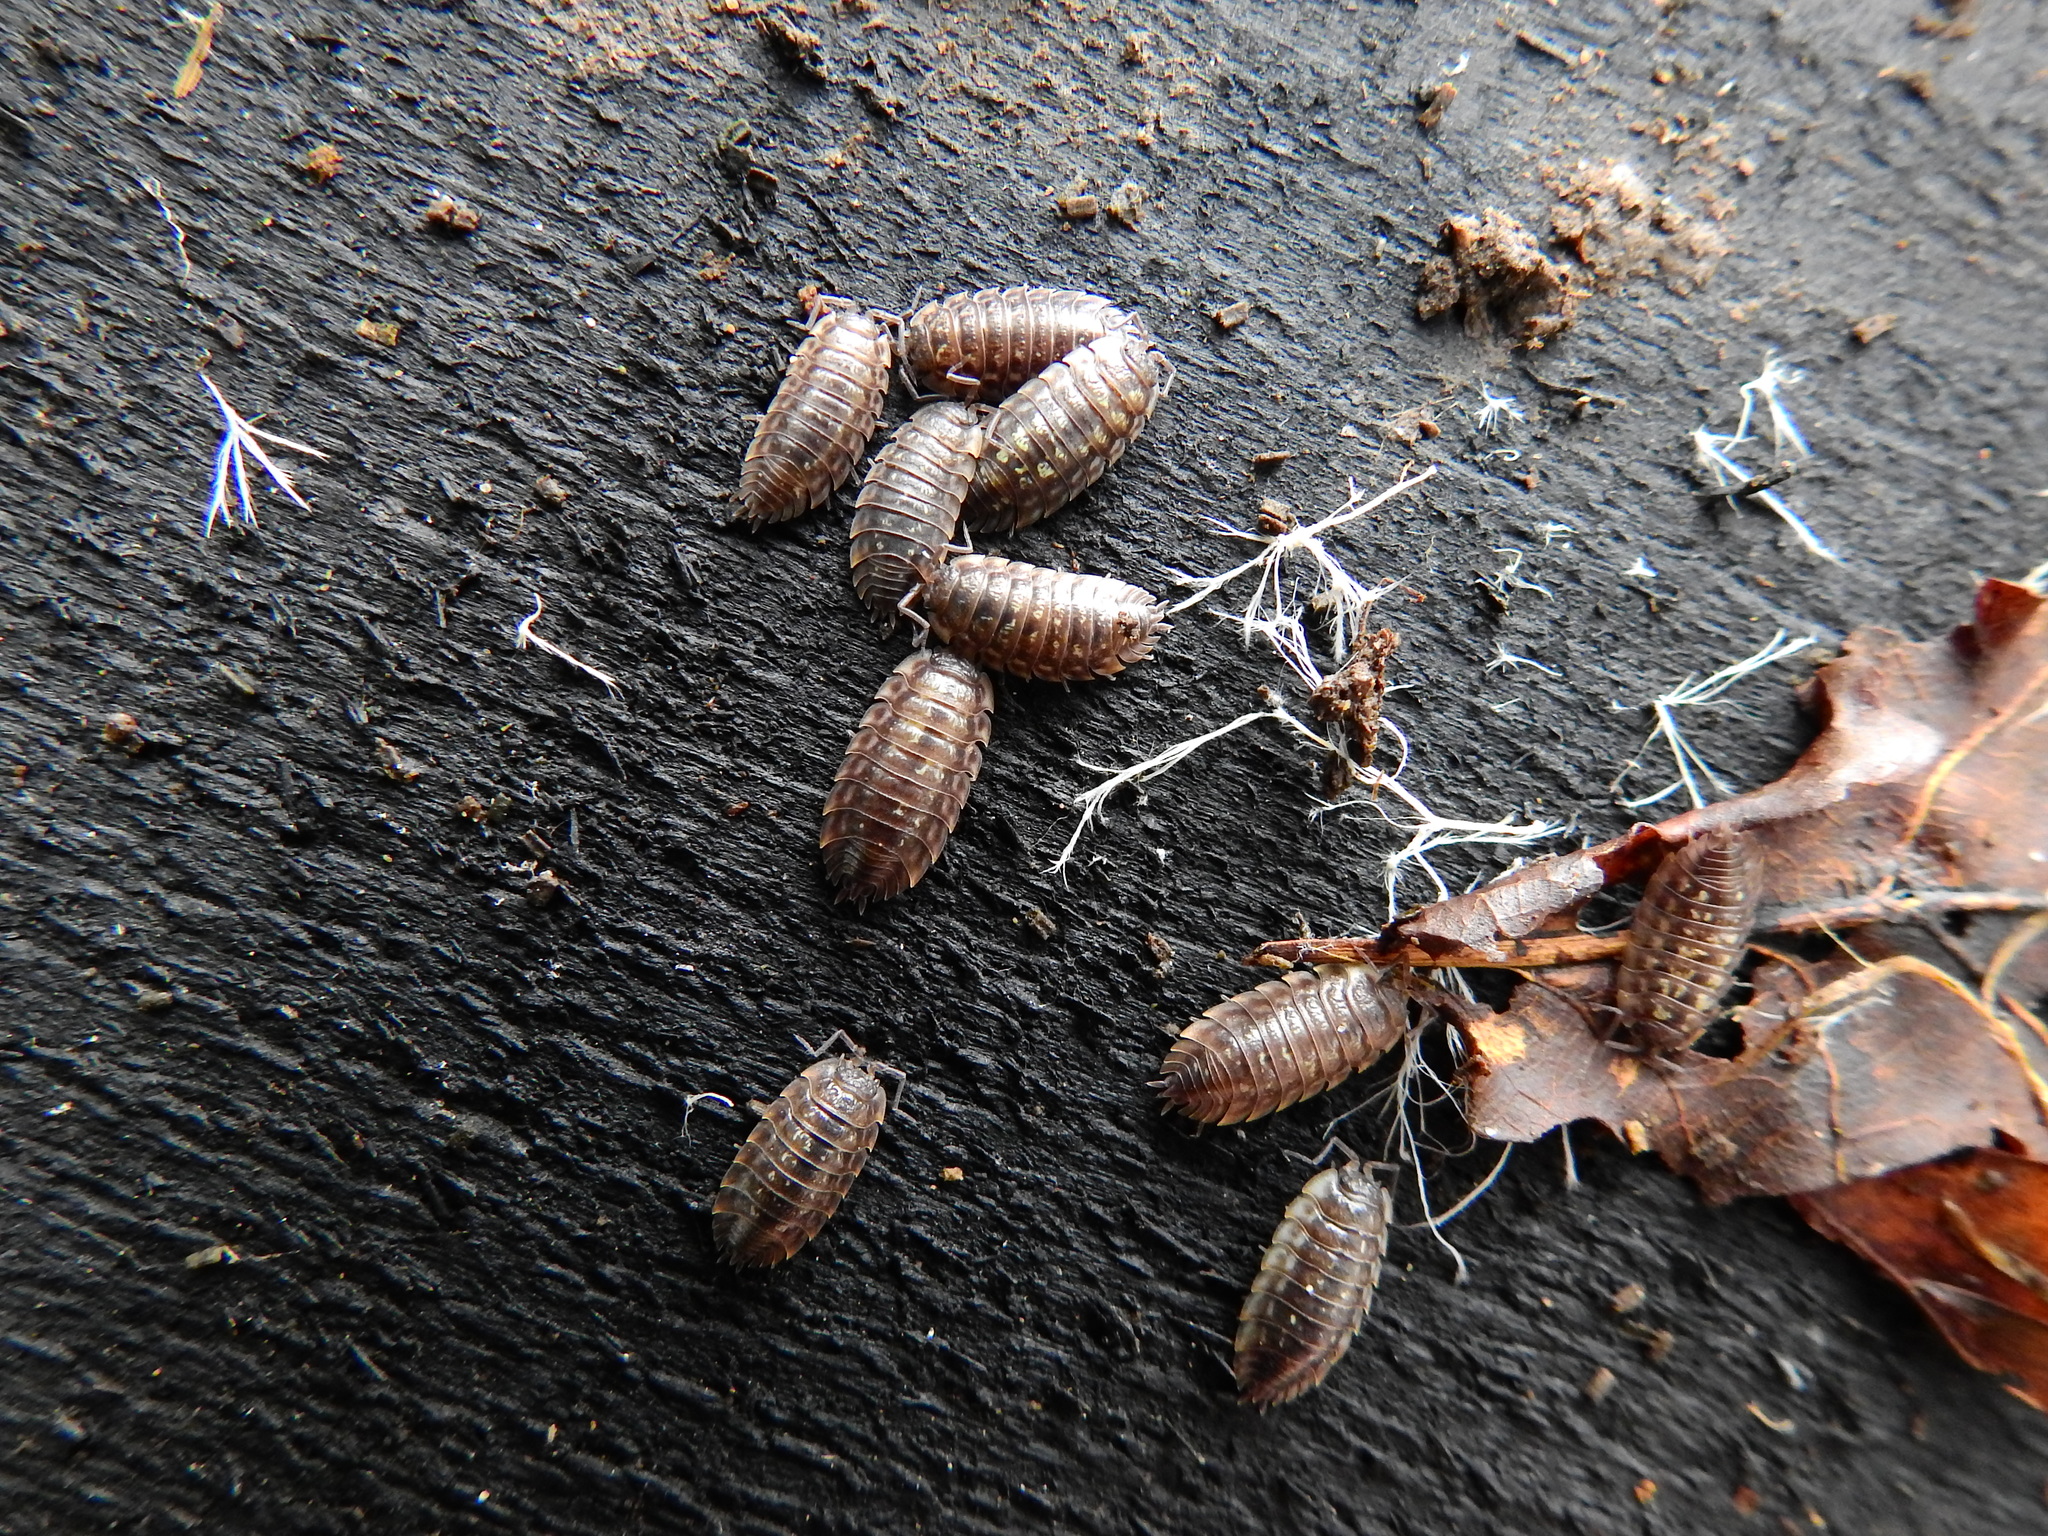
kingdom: Animalia
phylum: Arthropoda
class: Malacostraca
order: Isopoda
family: Oniscidae
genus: Oniscus
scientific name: Oniscus asellus
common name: Common shiny woodlouse
